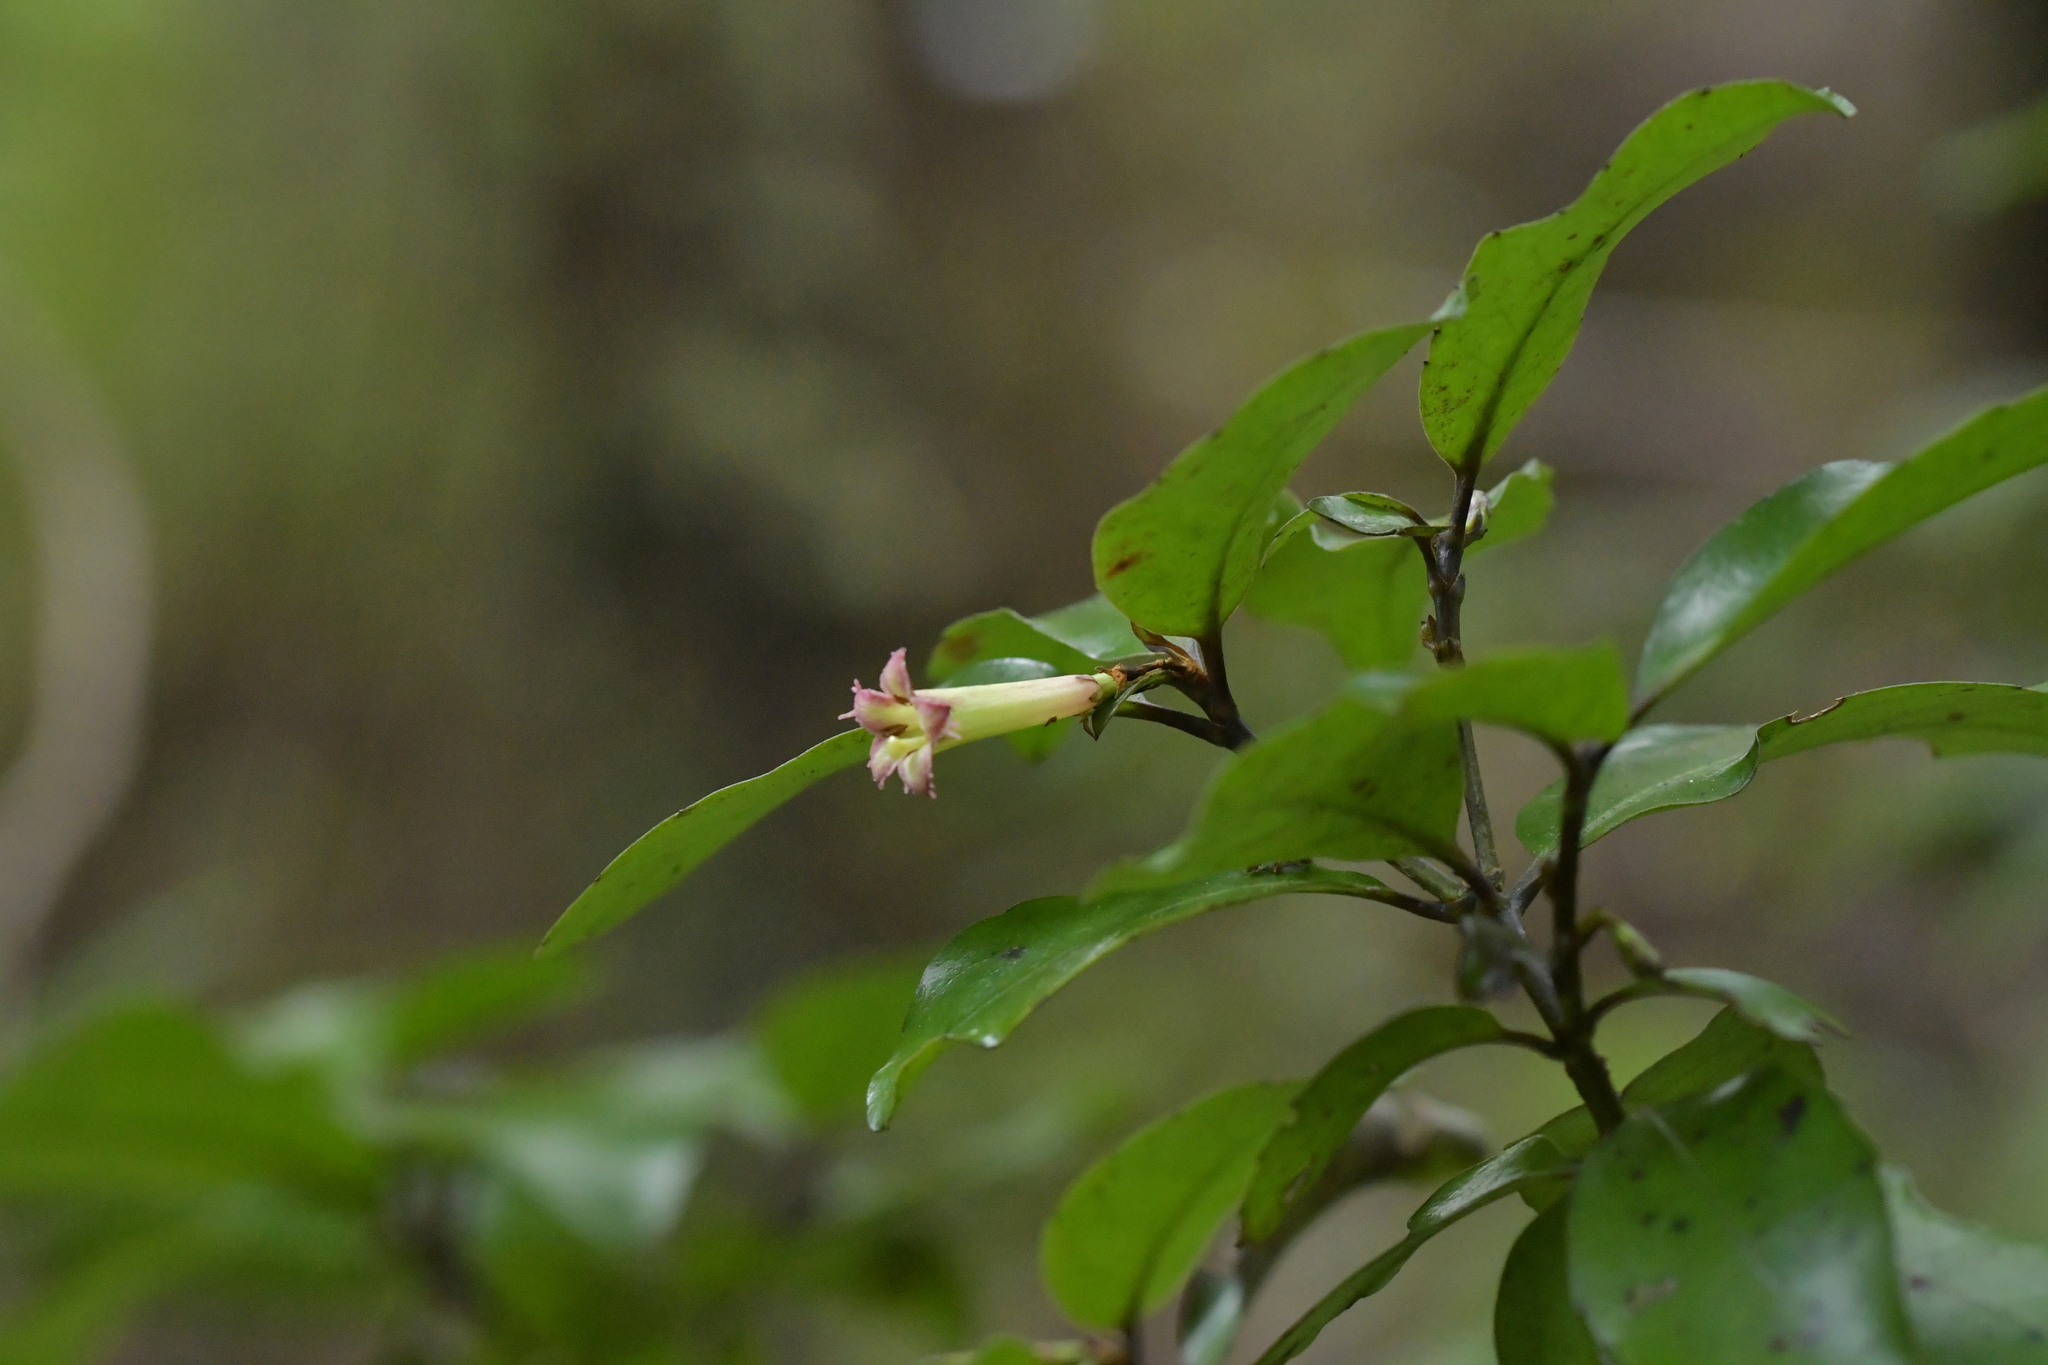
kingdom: Plantae
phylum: Tracheophyta
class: Magnoliopsida
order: Asterales
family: Alseuosmiaceae
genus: Alseuosmia
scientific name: Alseuosmia quercifolia
